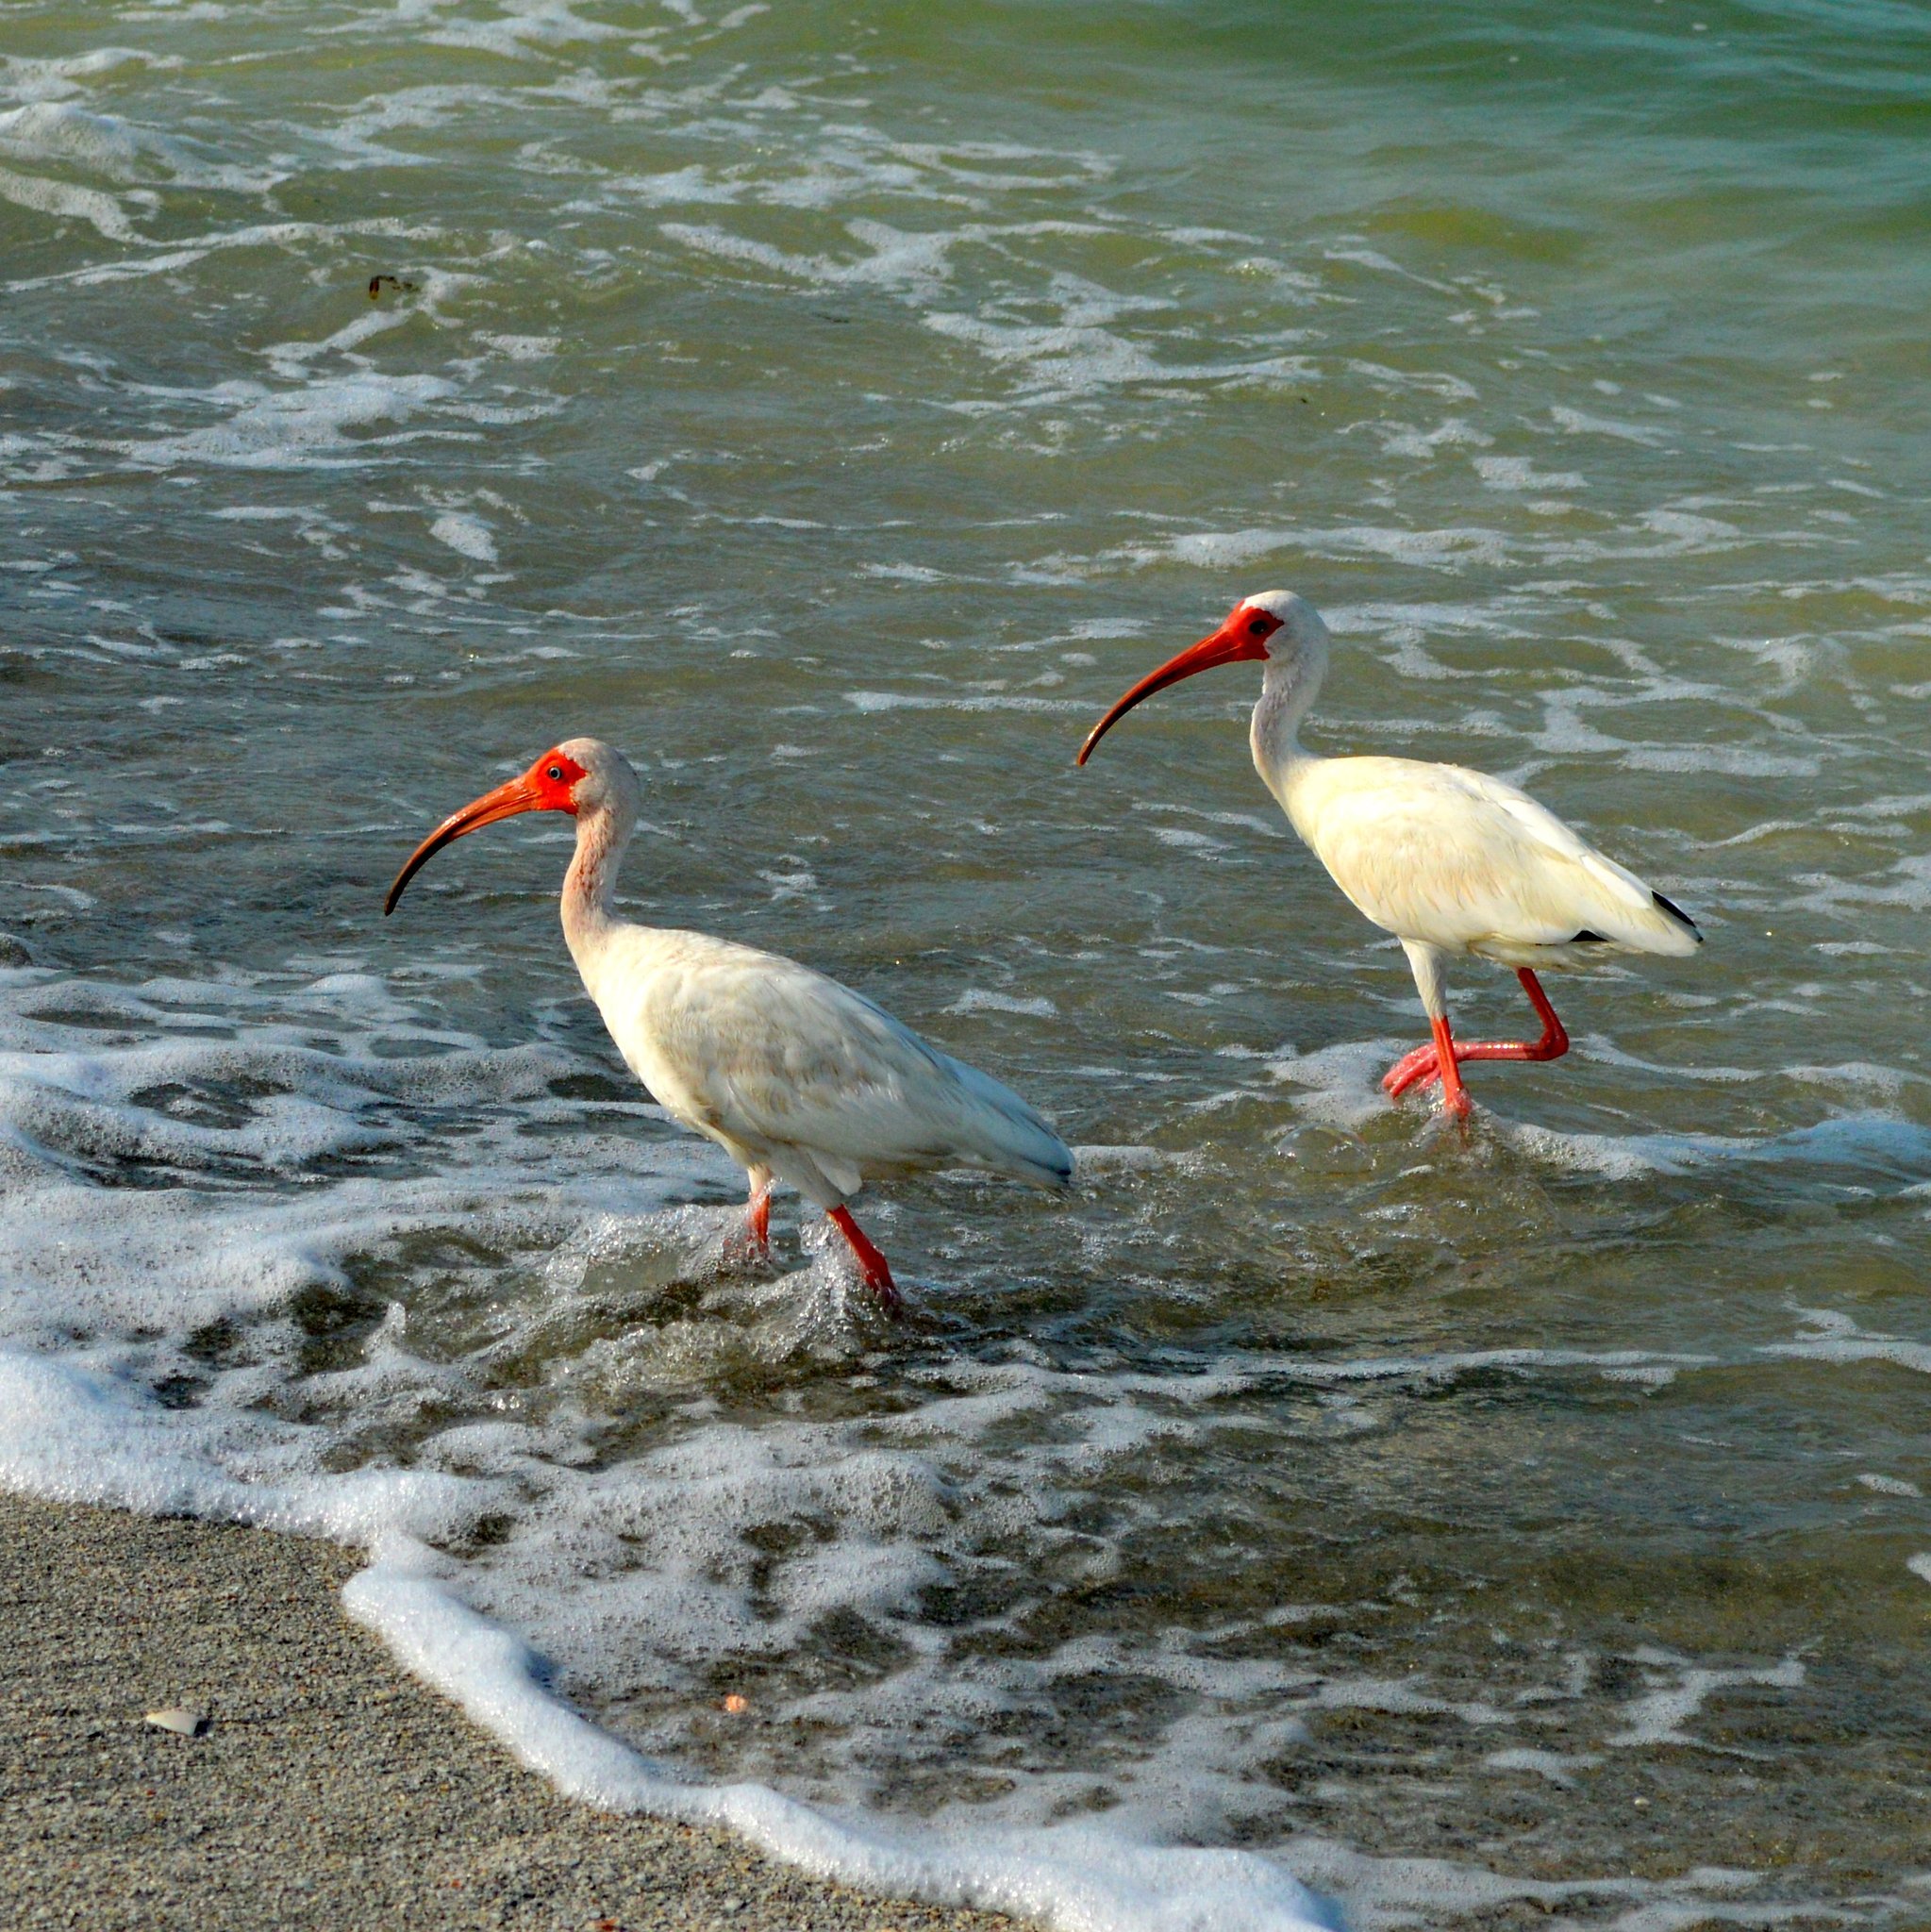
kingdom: Animalia
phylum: Chordata
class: Aves
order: Pelecaniformes
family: Threskiornithidae
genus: Eudocimus
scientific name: Eudocimus albus
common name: White ibis
